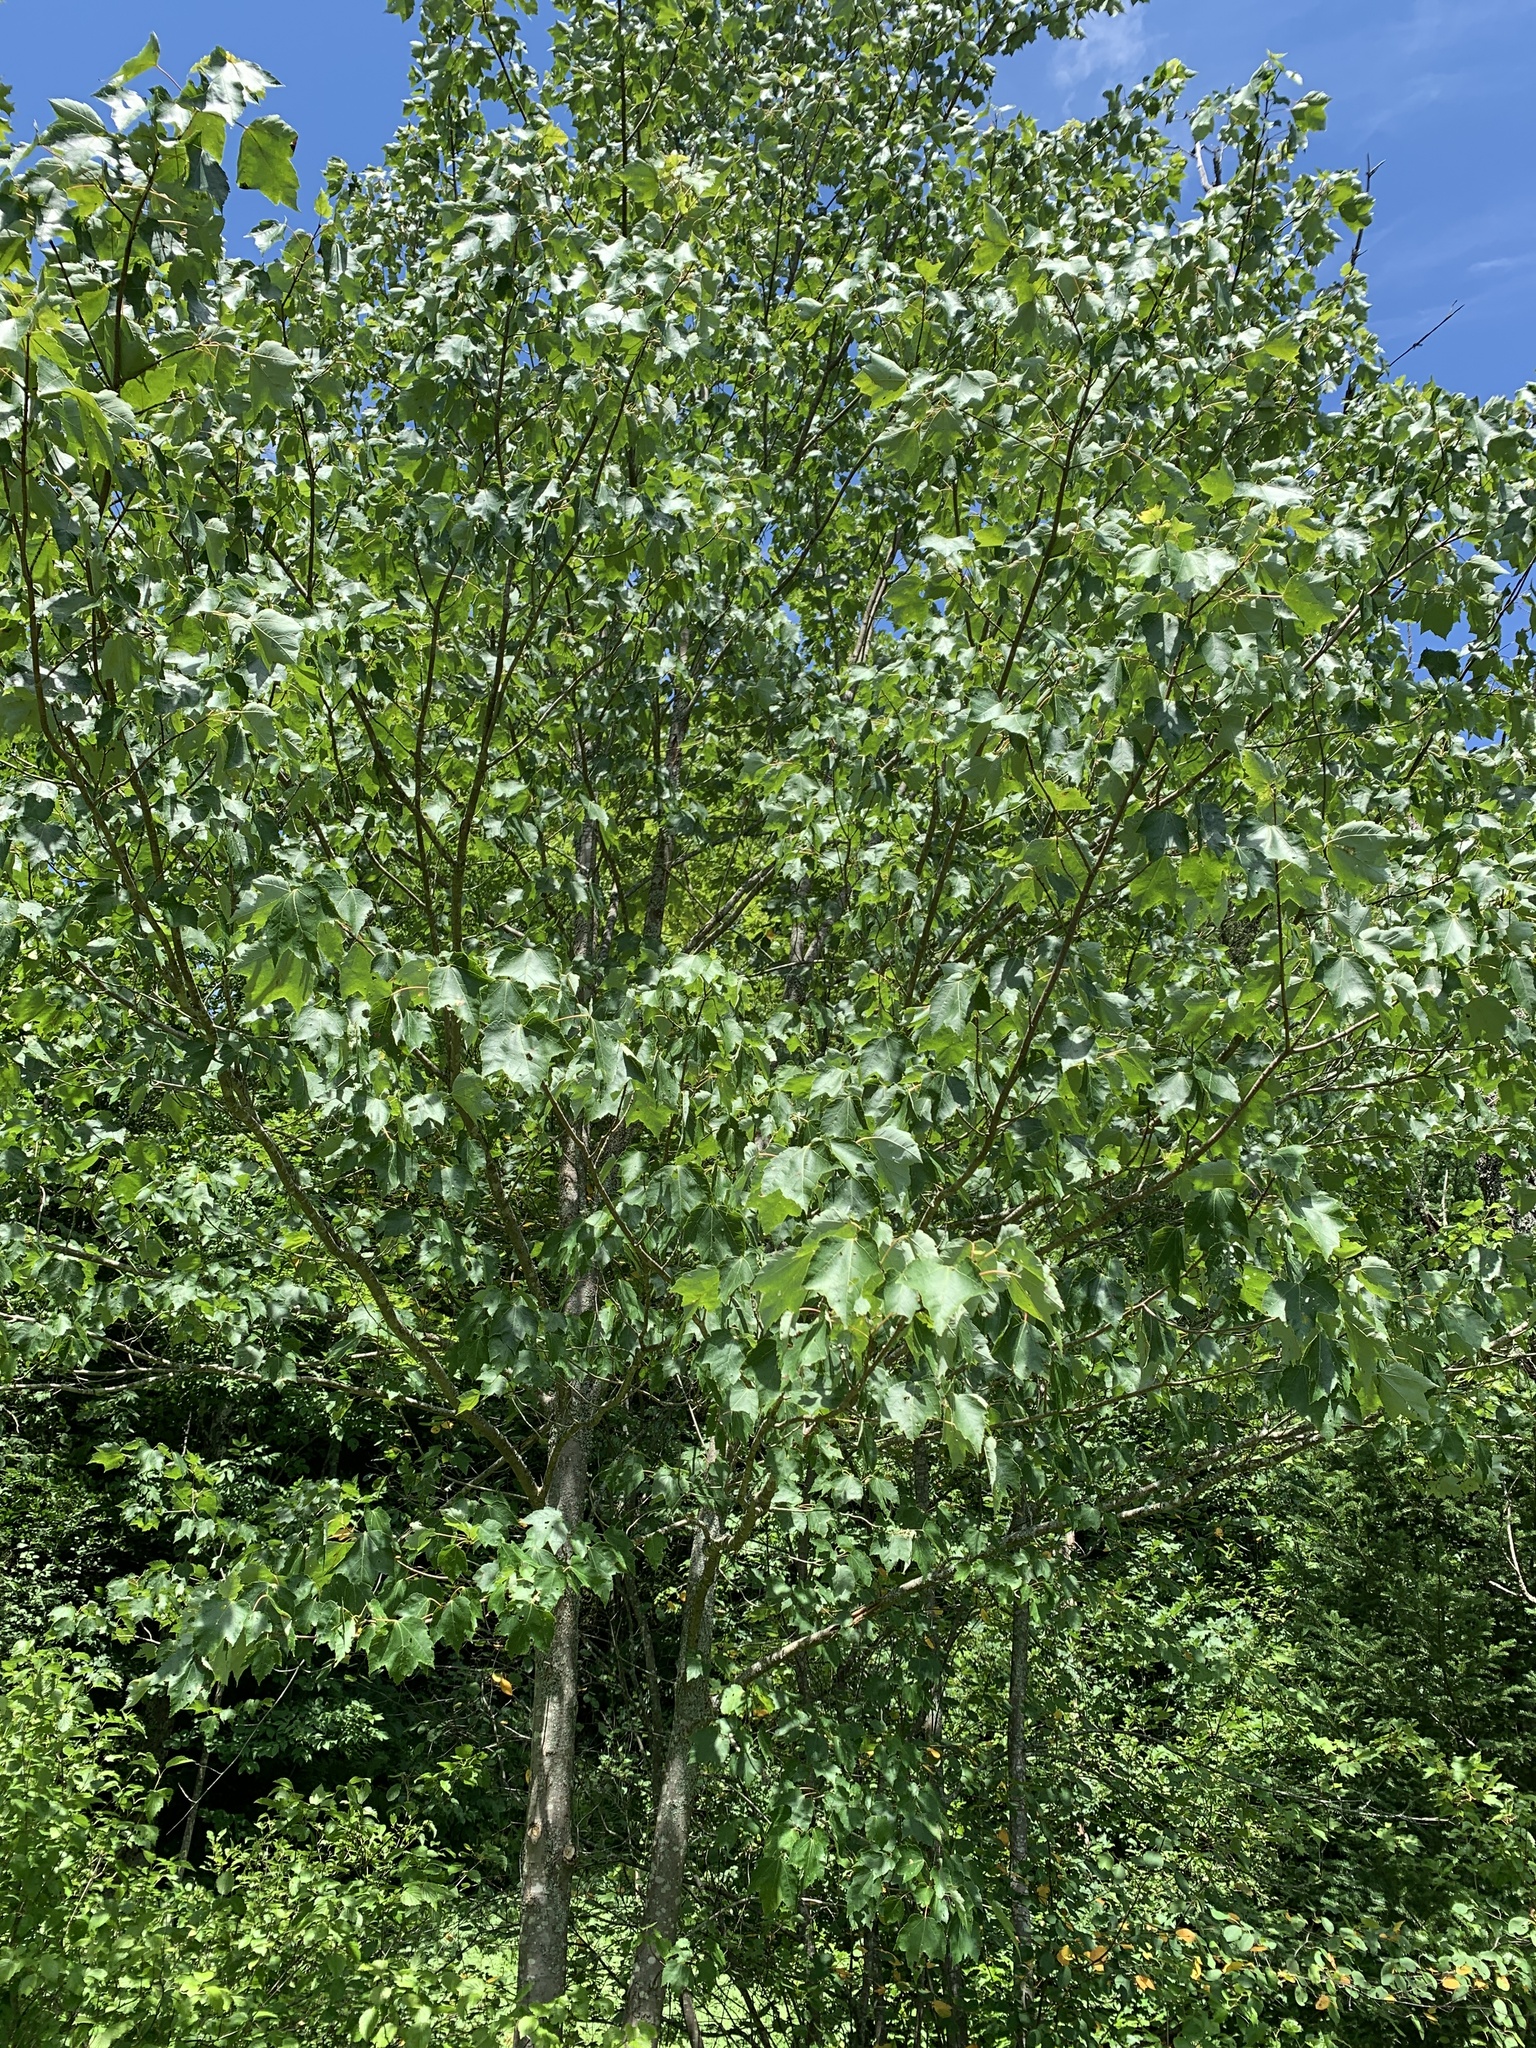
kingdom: Plantae
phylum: Tracheophyta
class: Magnoliopsida
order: Sapindales
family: Sapindaceae
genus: Acer
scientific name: Acer rubrum
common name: Red maple
